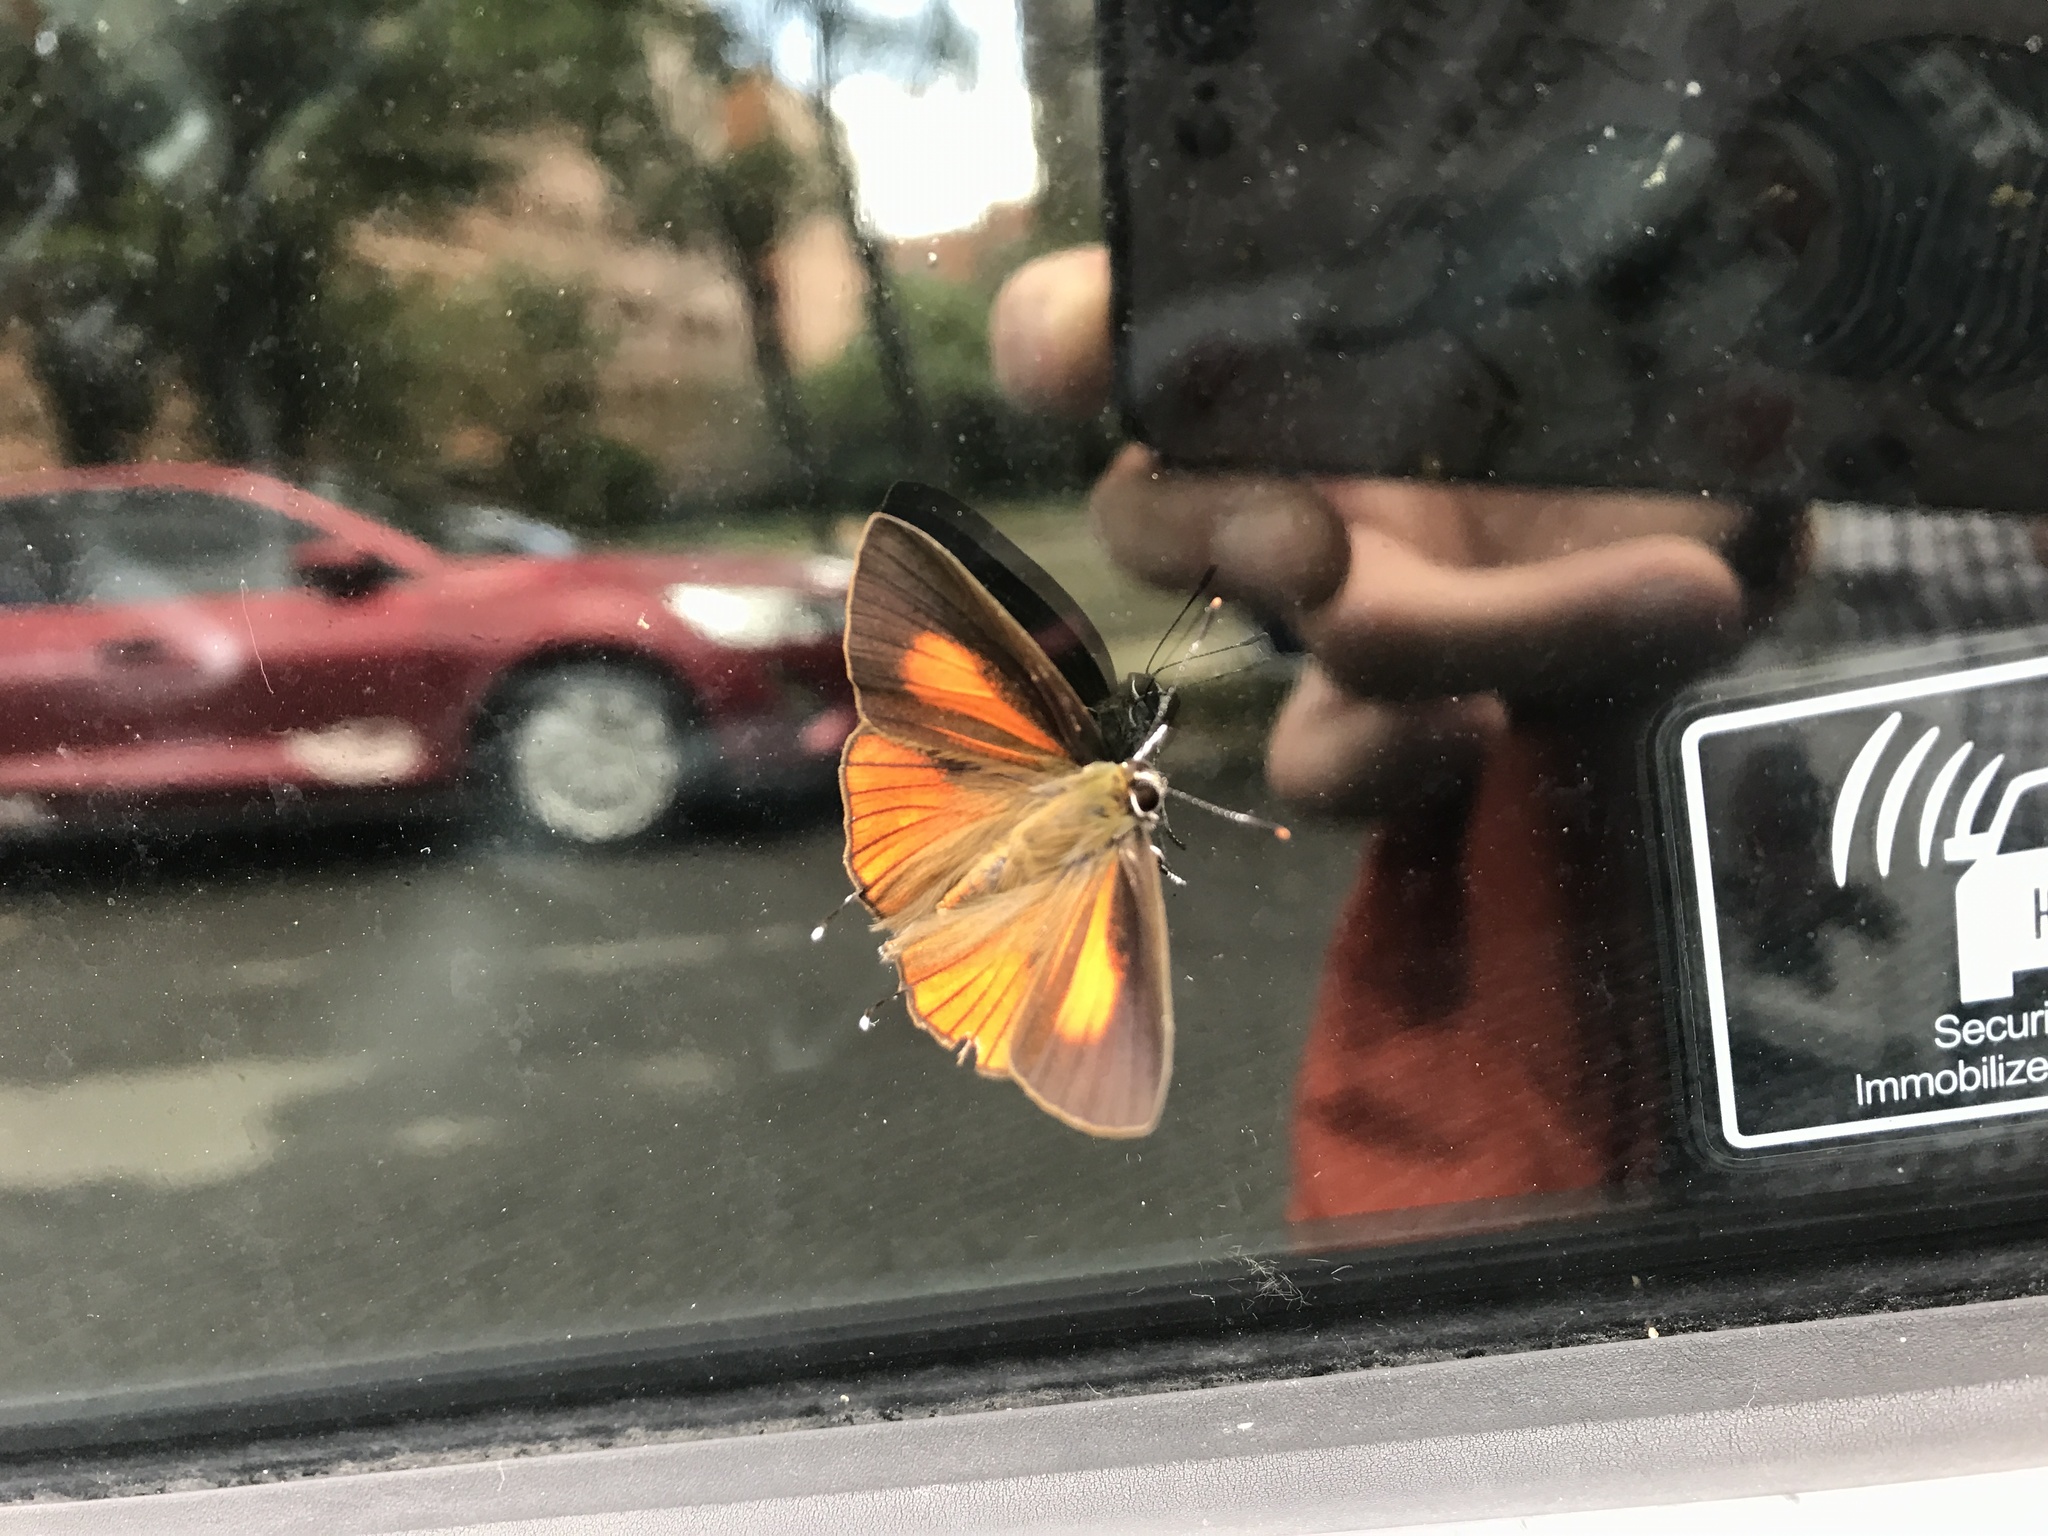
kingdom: Animalia
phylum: Arthropoda
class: Insecta
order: Lepidoptera
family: Lycaenidae
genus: Deudorix
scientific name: Deudorix epijarbas
